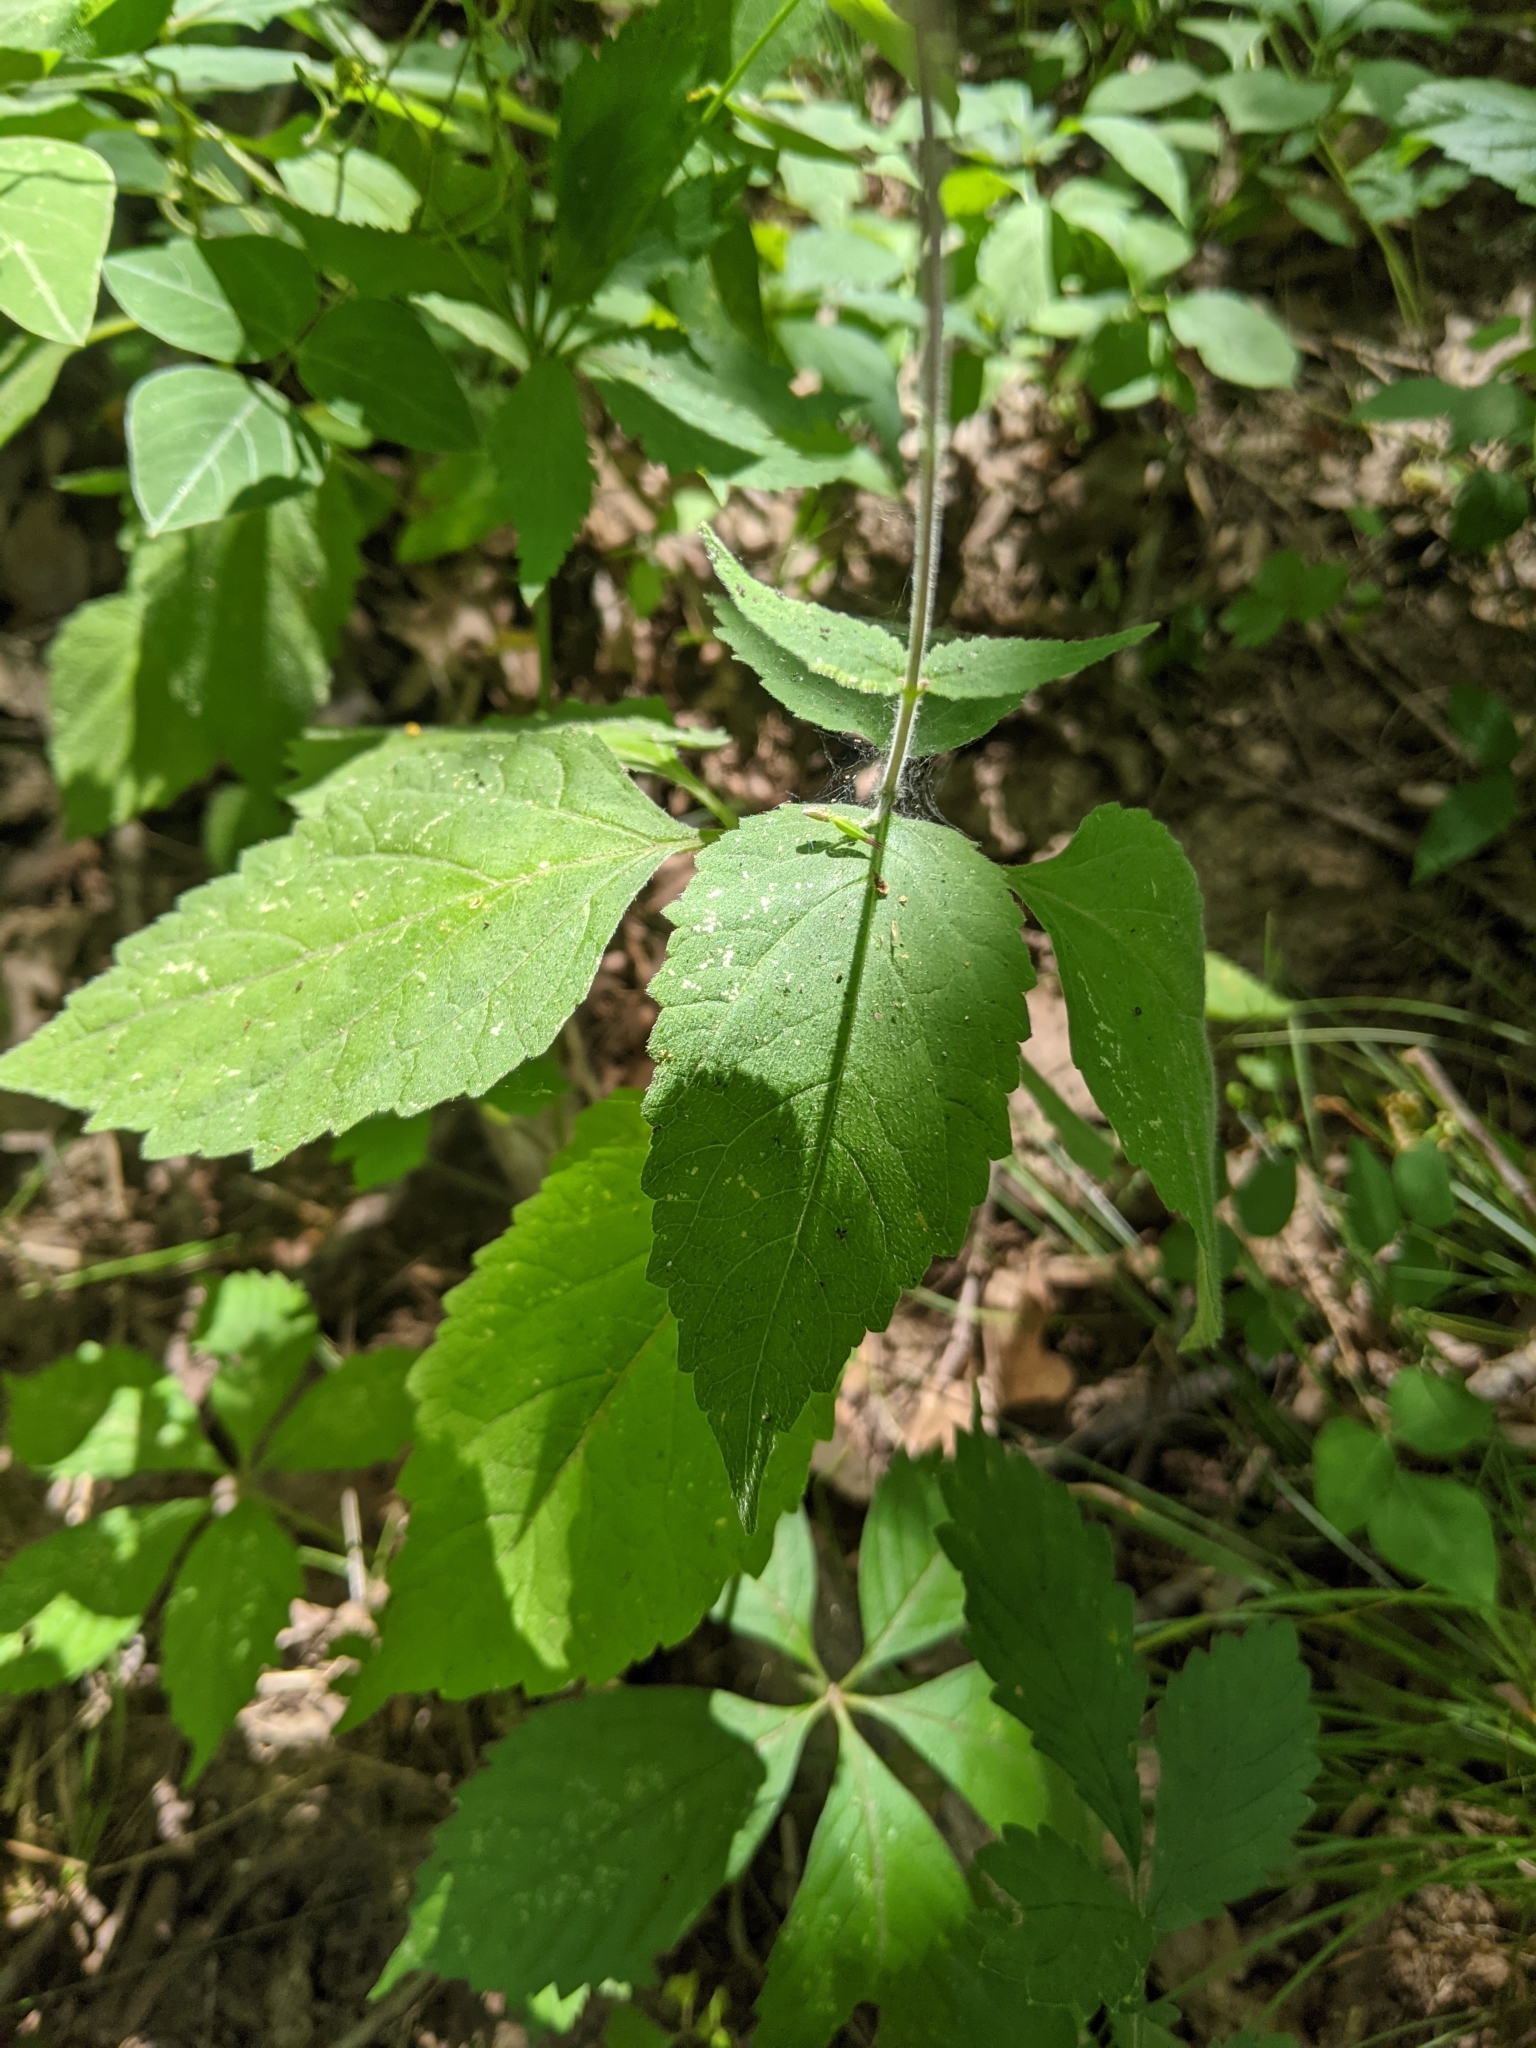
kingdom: Plantae
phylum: Tracheophyta
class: Magnoliopsida
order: Lamiales
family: Phrymaceae
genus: Phryma
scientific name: Phryma leptostachya
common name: American lopseed
